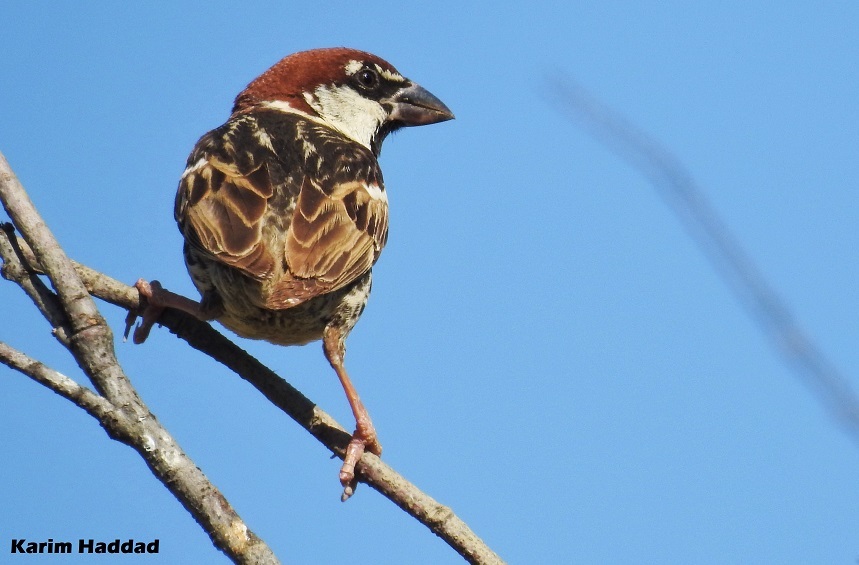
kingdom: Animalia
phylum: Chordata
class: Aves
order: Passeriformes
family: Passeridae
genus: Passer
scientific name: Passer hispaniolensis
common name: Spanish sparrow
